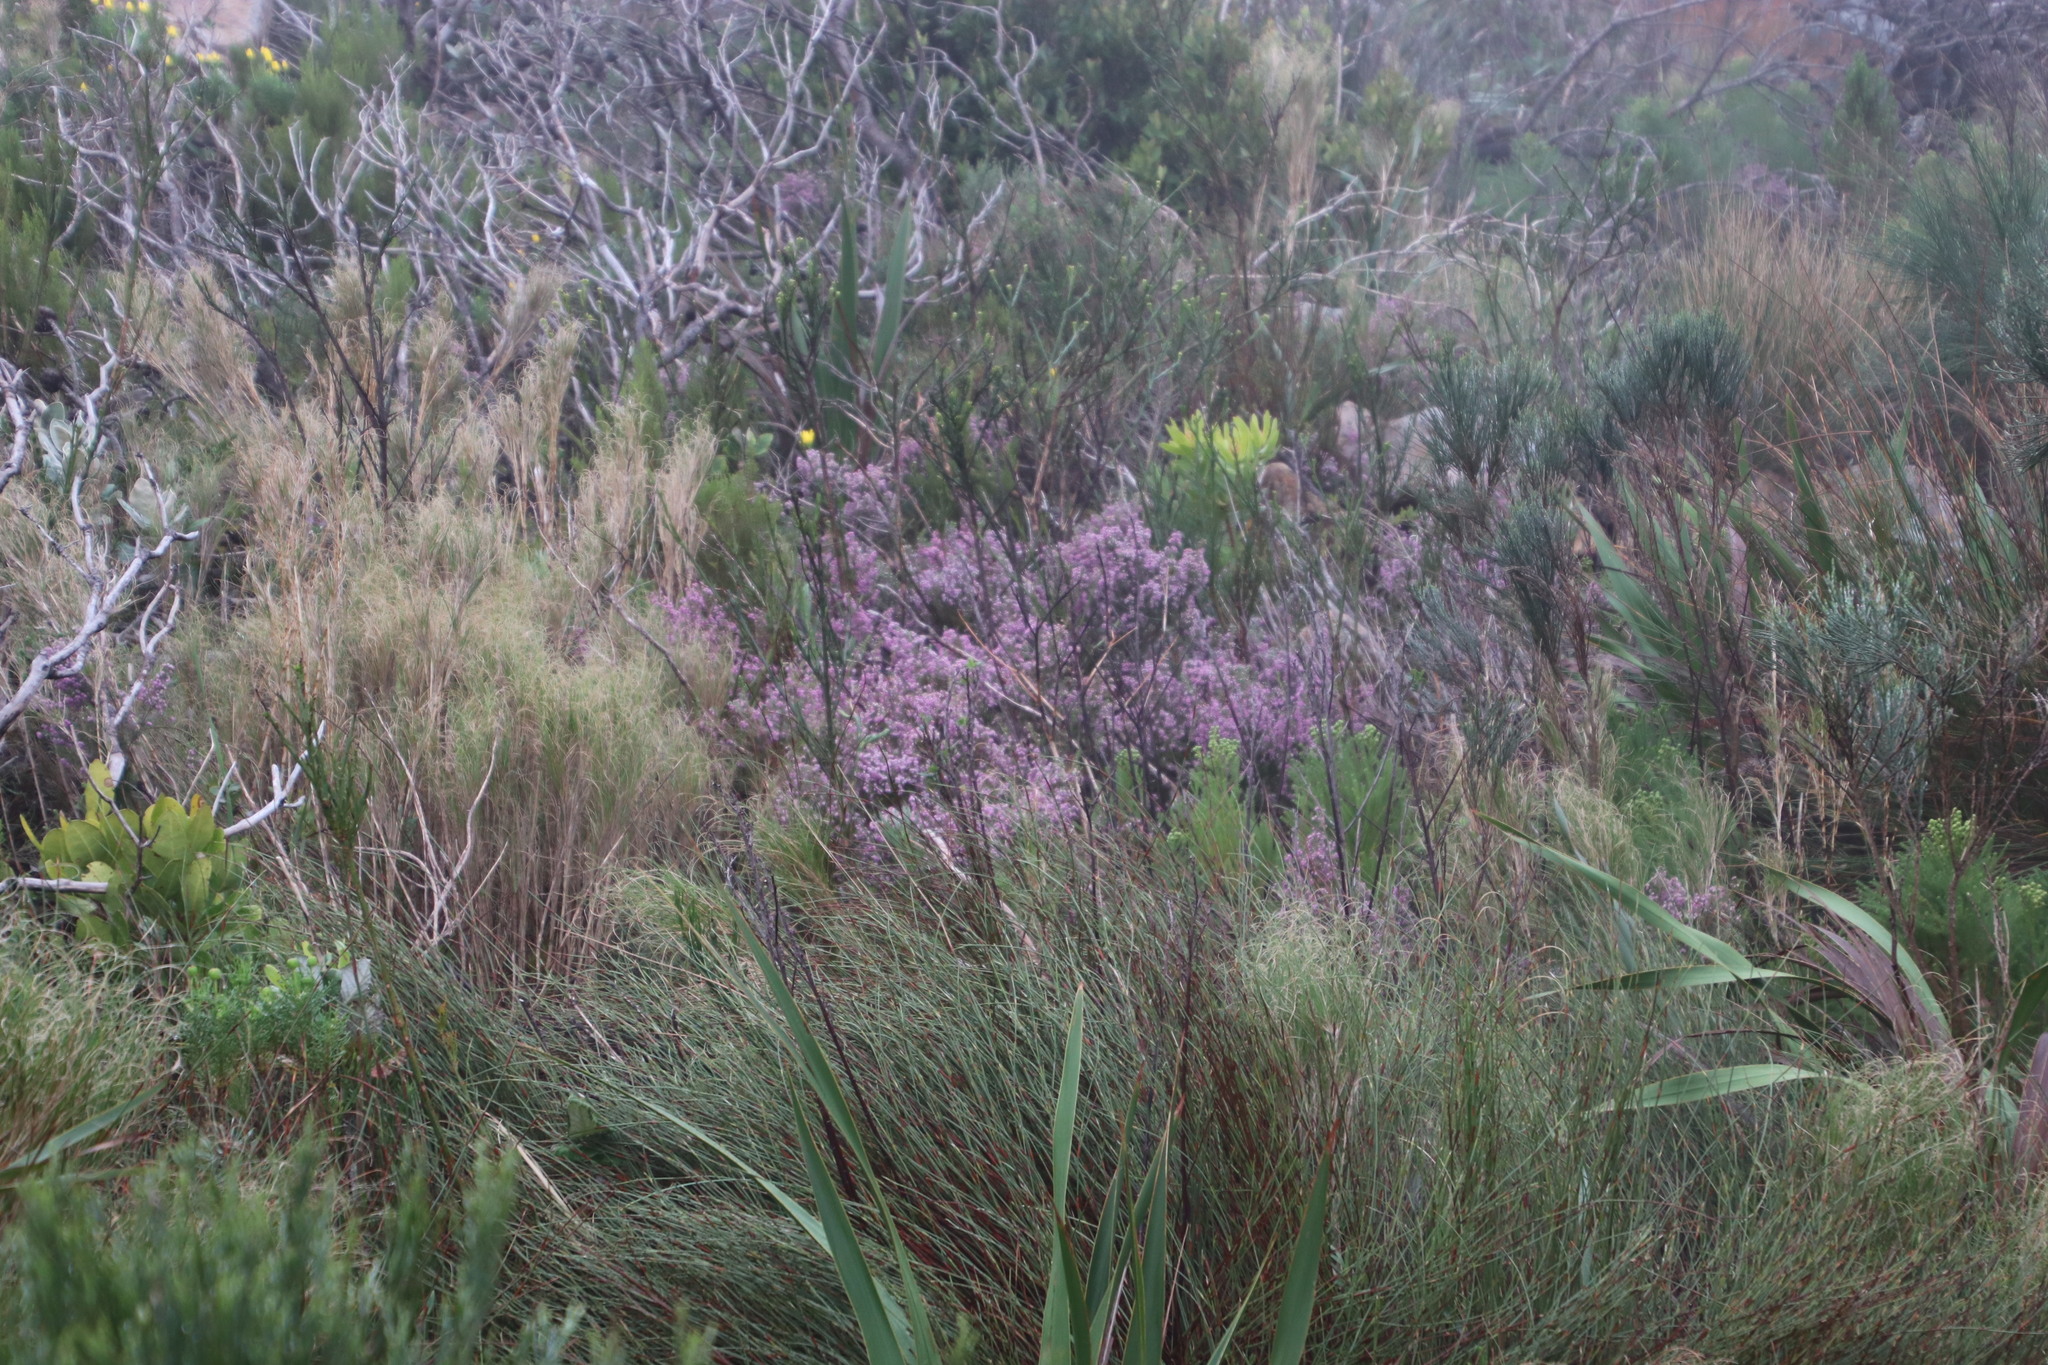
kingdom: Plantae
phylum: Tracheophyta
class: Magnoliopsida
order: Ericales
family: Ericaceae
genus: Erica
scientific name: Erica hirtiflora
